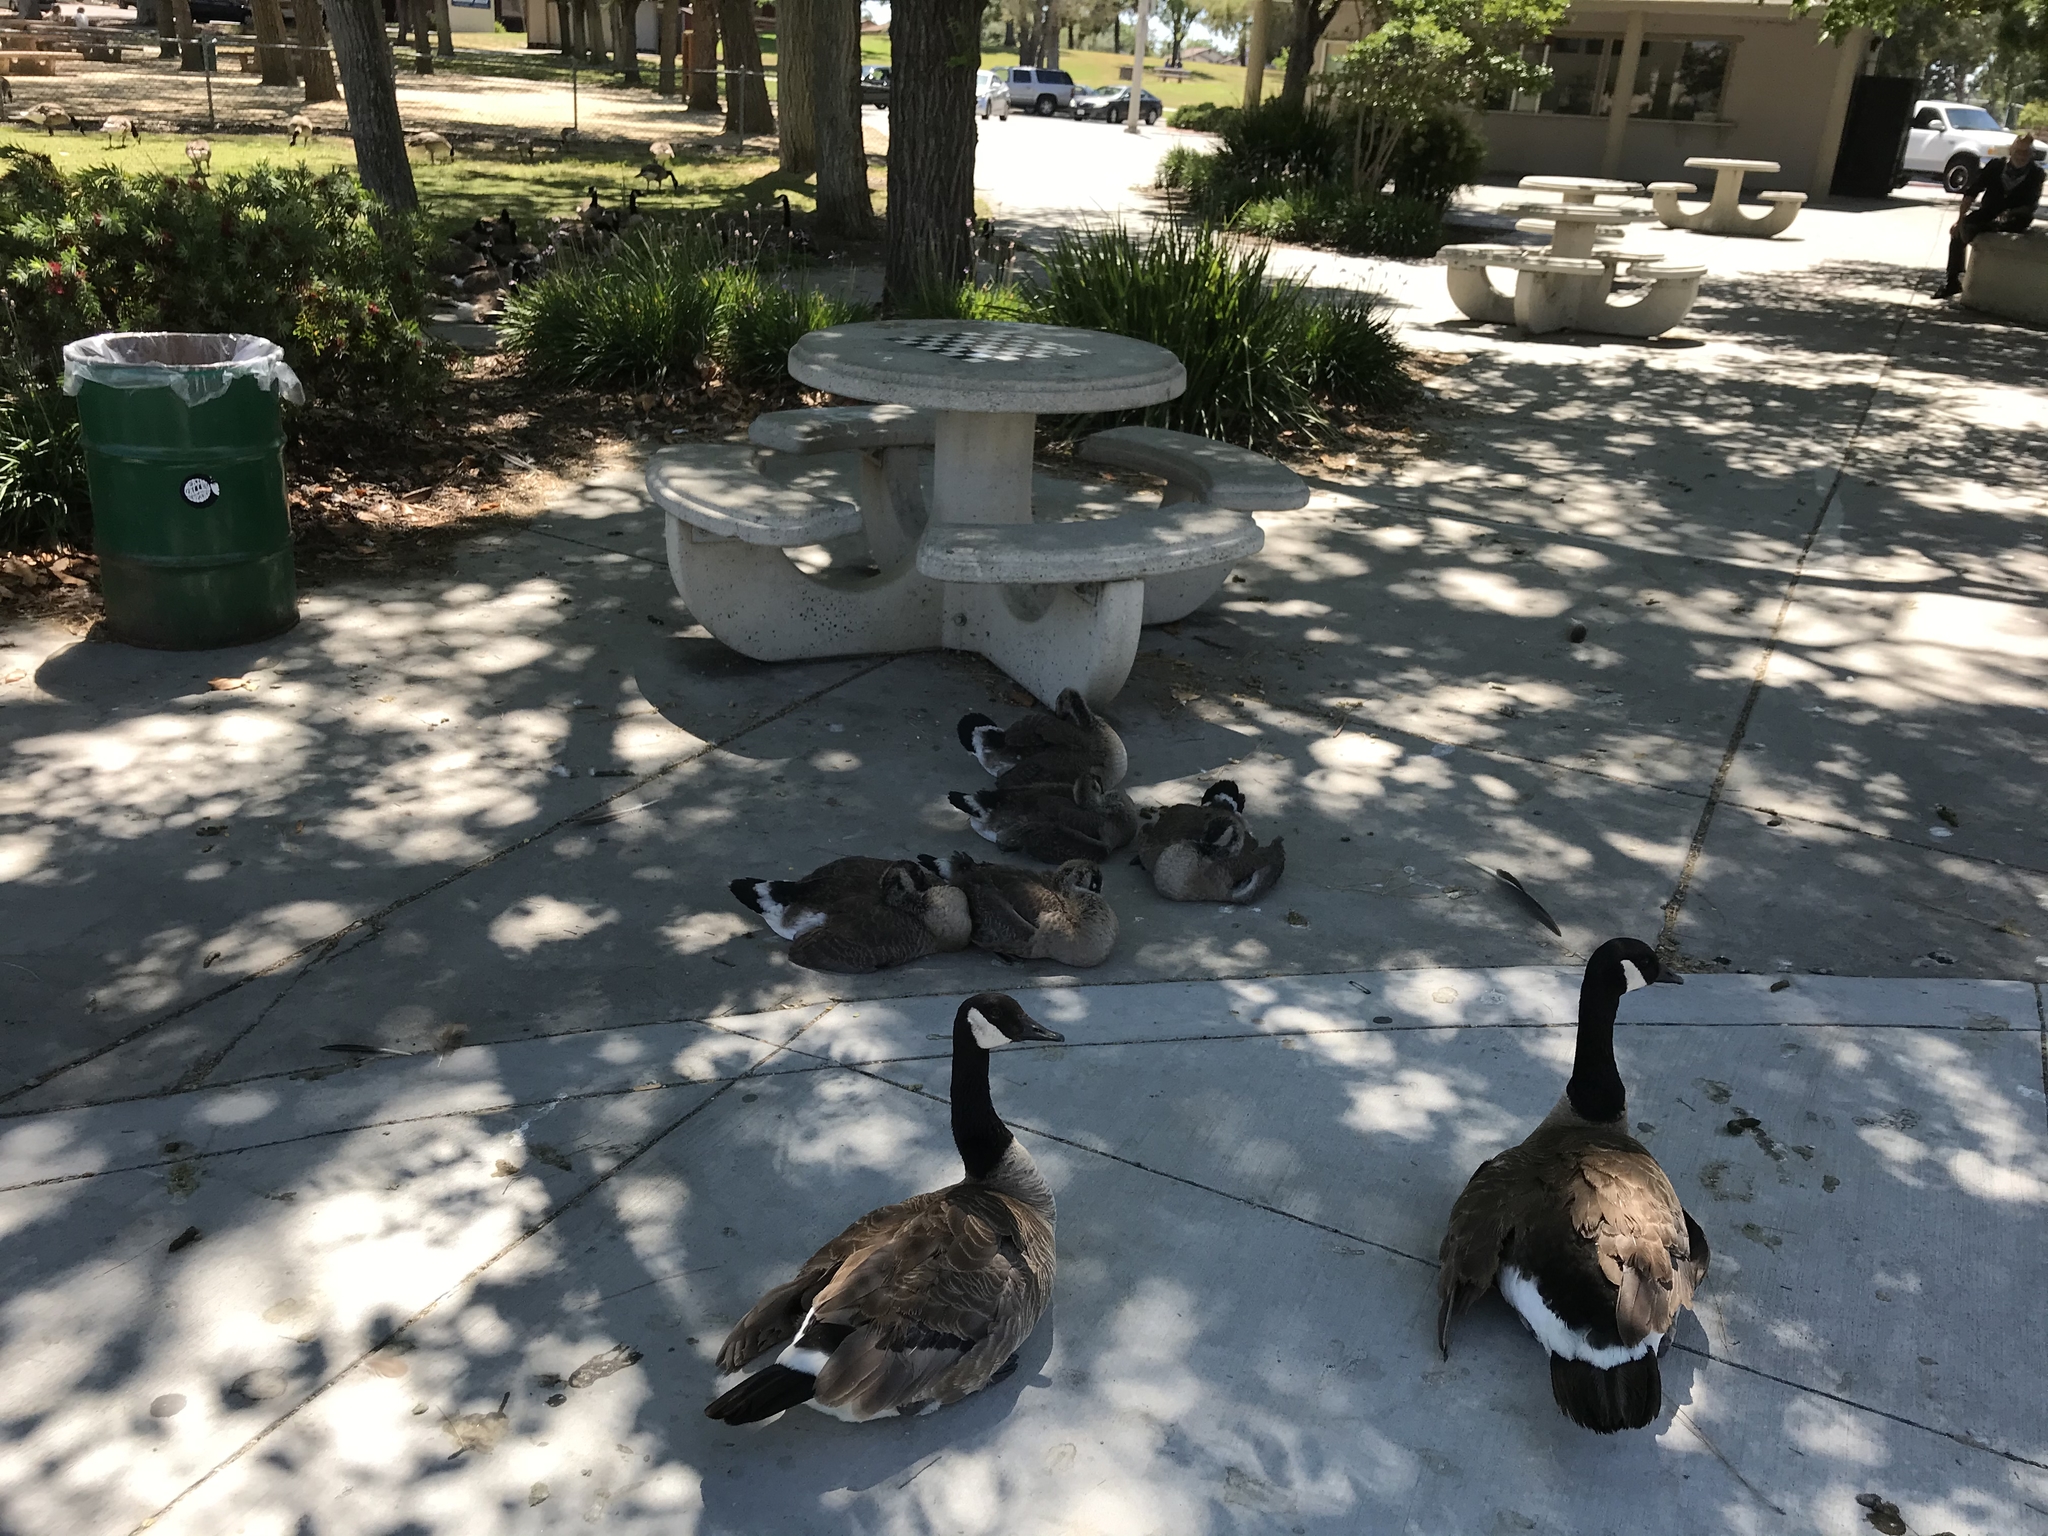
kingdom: Animalia
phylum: Chordata
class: Aves
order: Anseriformes
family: Anatidae
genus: Branta
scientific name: Branta canadensis
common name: Canada goose
